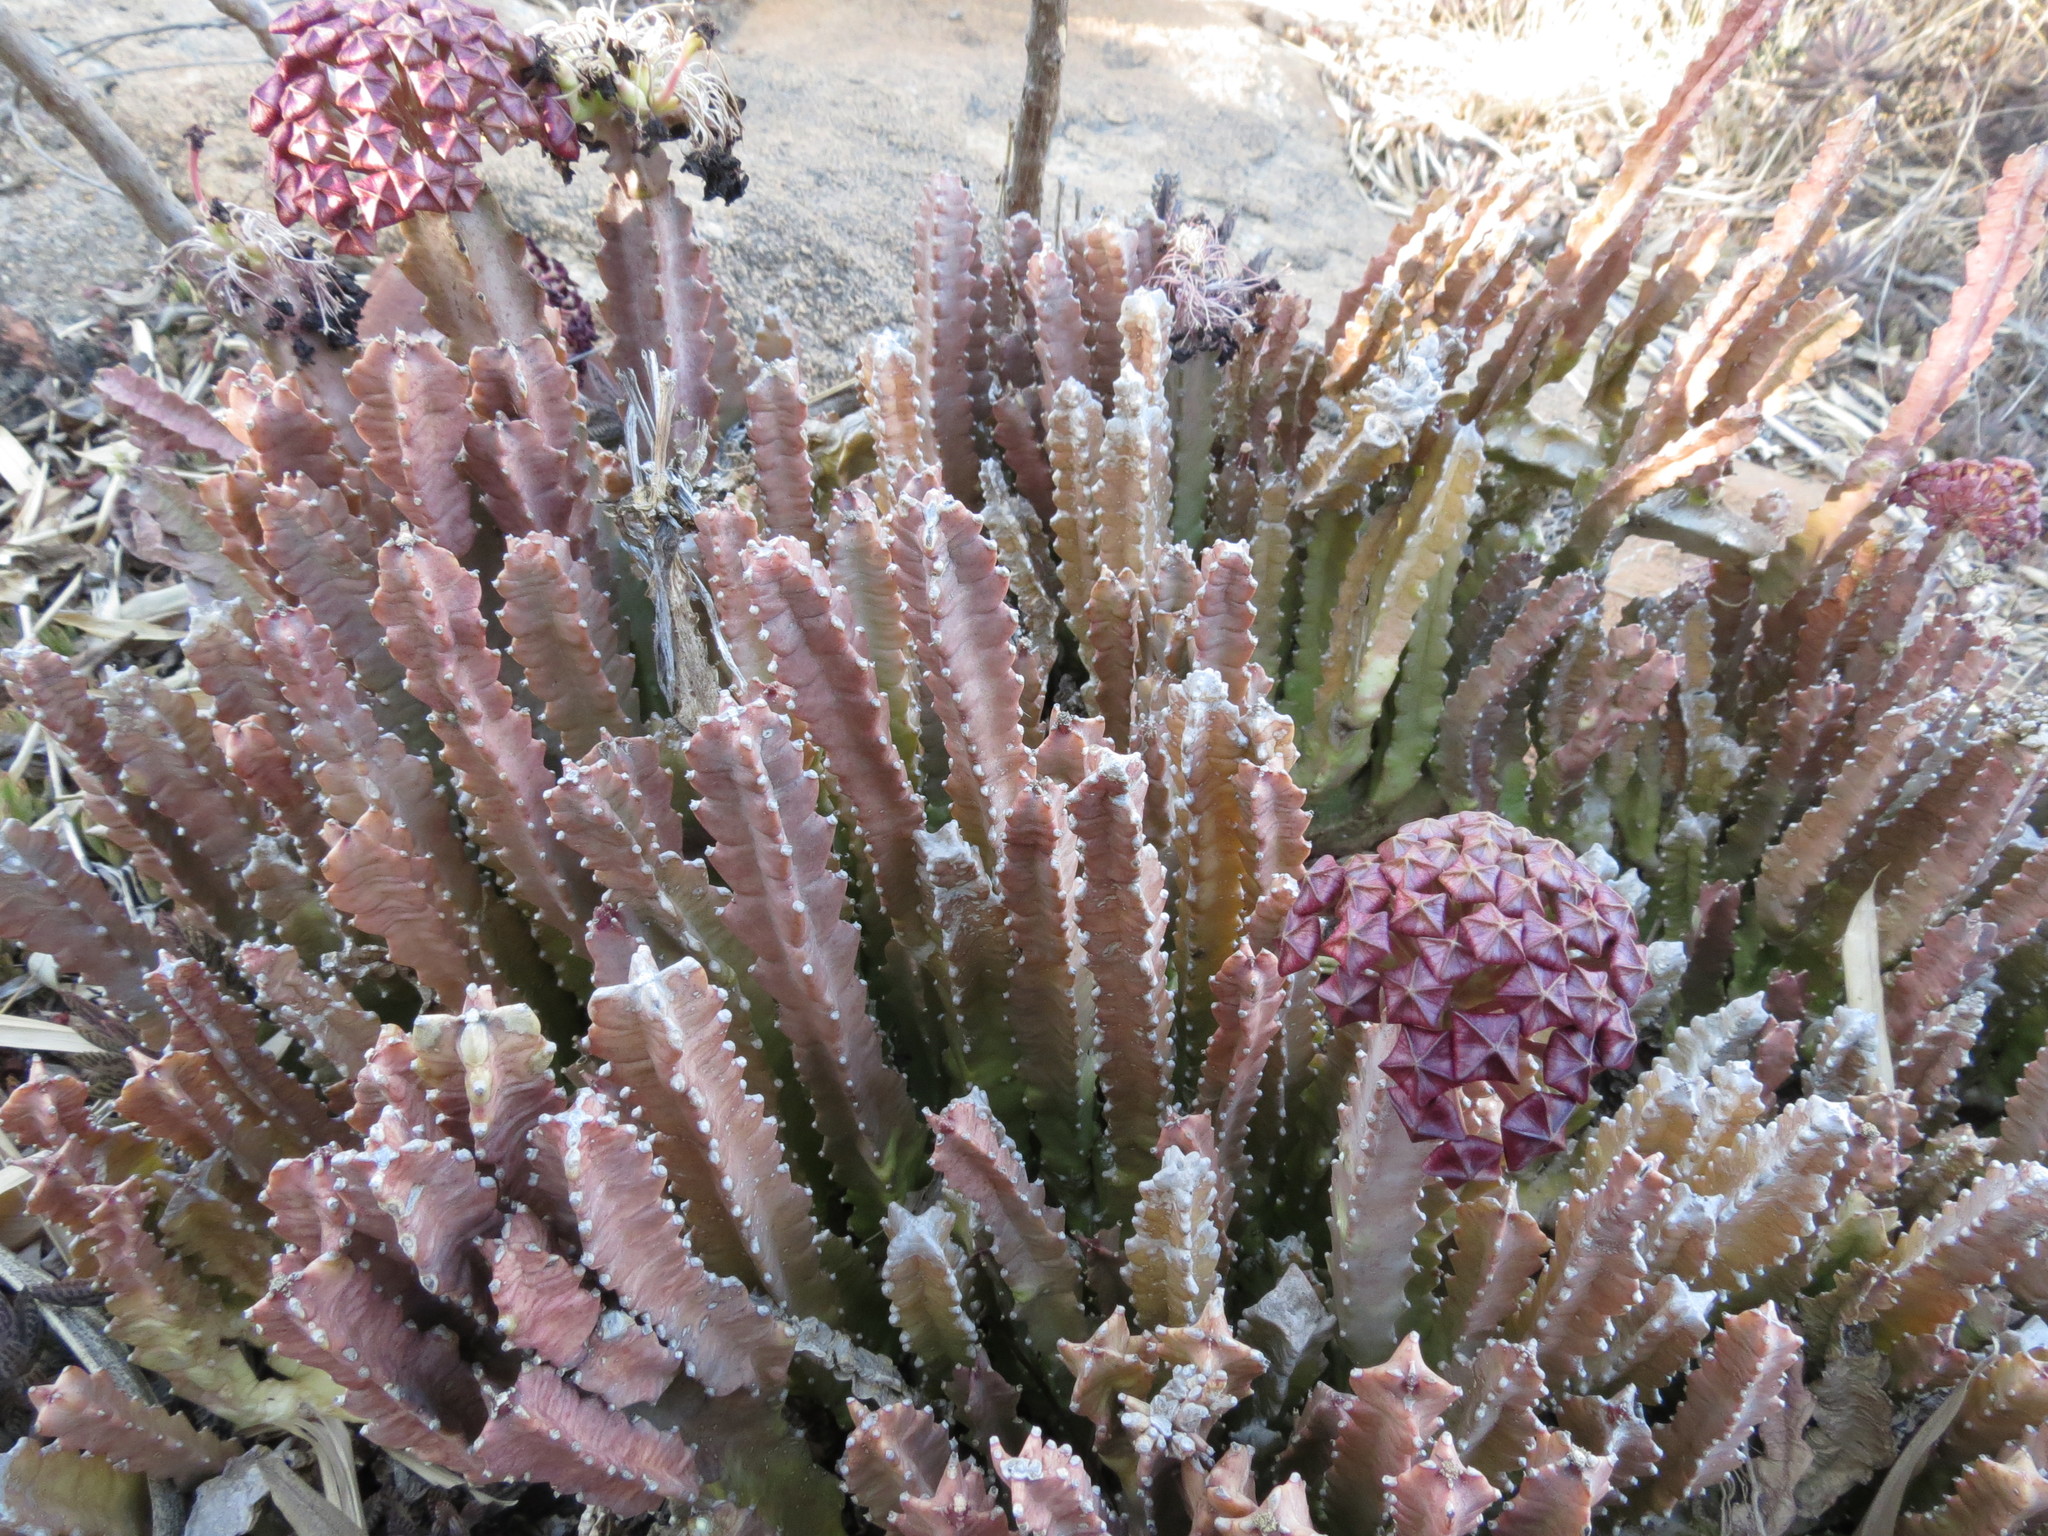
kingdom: Plantae
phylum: Tracheophyta
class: Magnoliopsida
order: Gentianales
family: Apocynaceae
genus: Ceropegia
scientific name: Ceropegia umbellata
